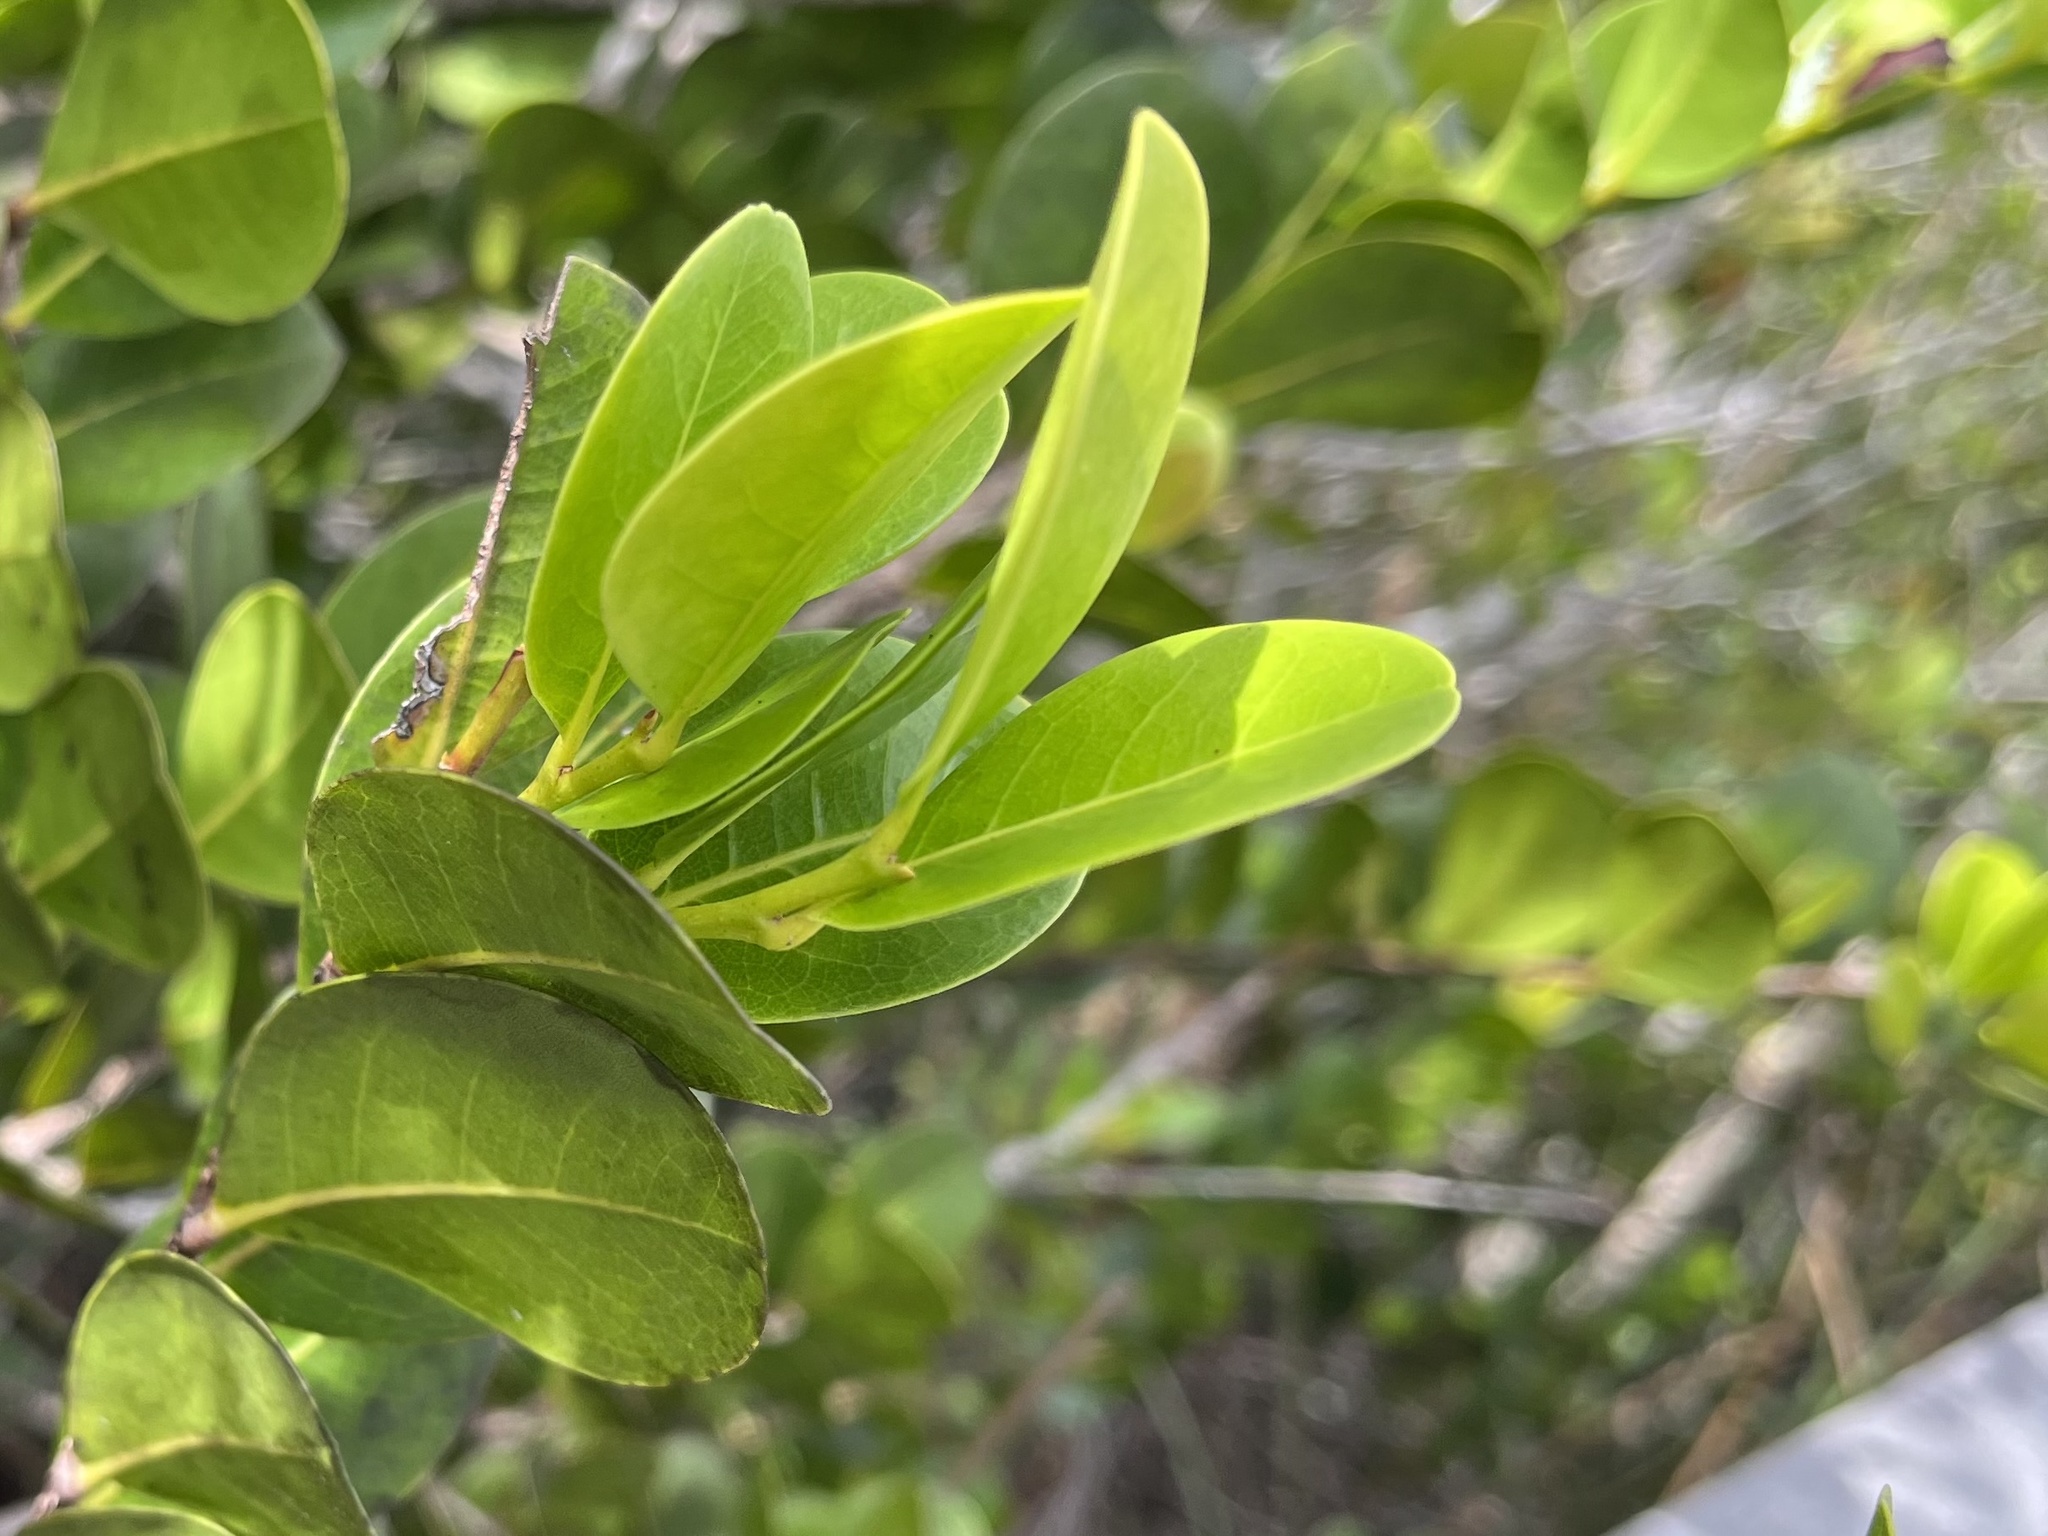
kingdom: Plantae
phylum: Tracheophyta
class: Magnoliopsida
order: Malpighiales
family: Chrysobalanaceae
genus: Chrysobalanus
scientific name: Chrysobalanus icaco
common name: Coco plum
